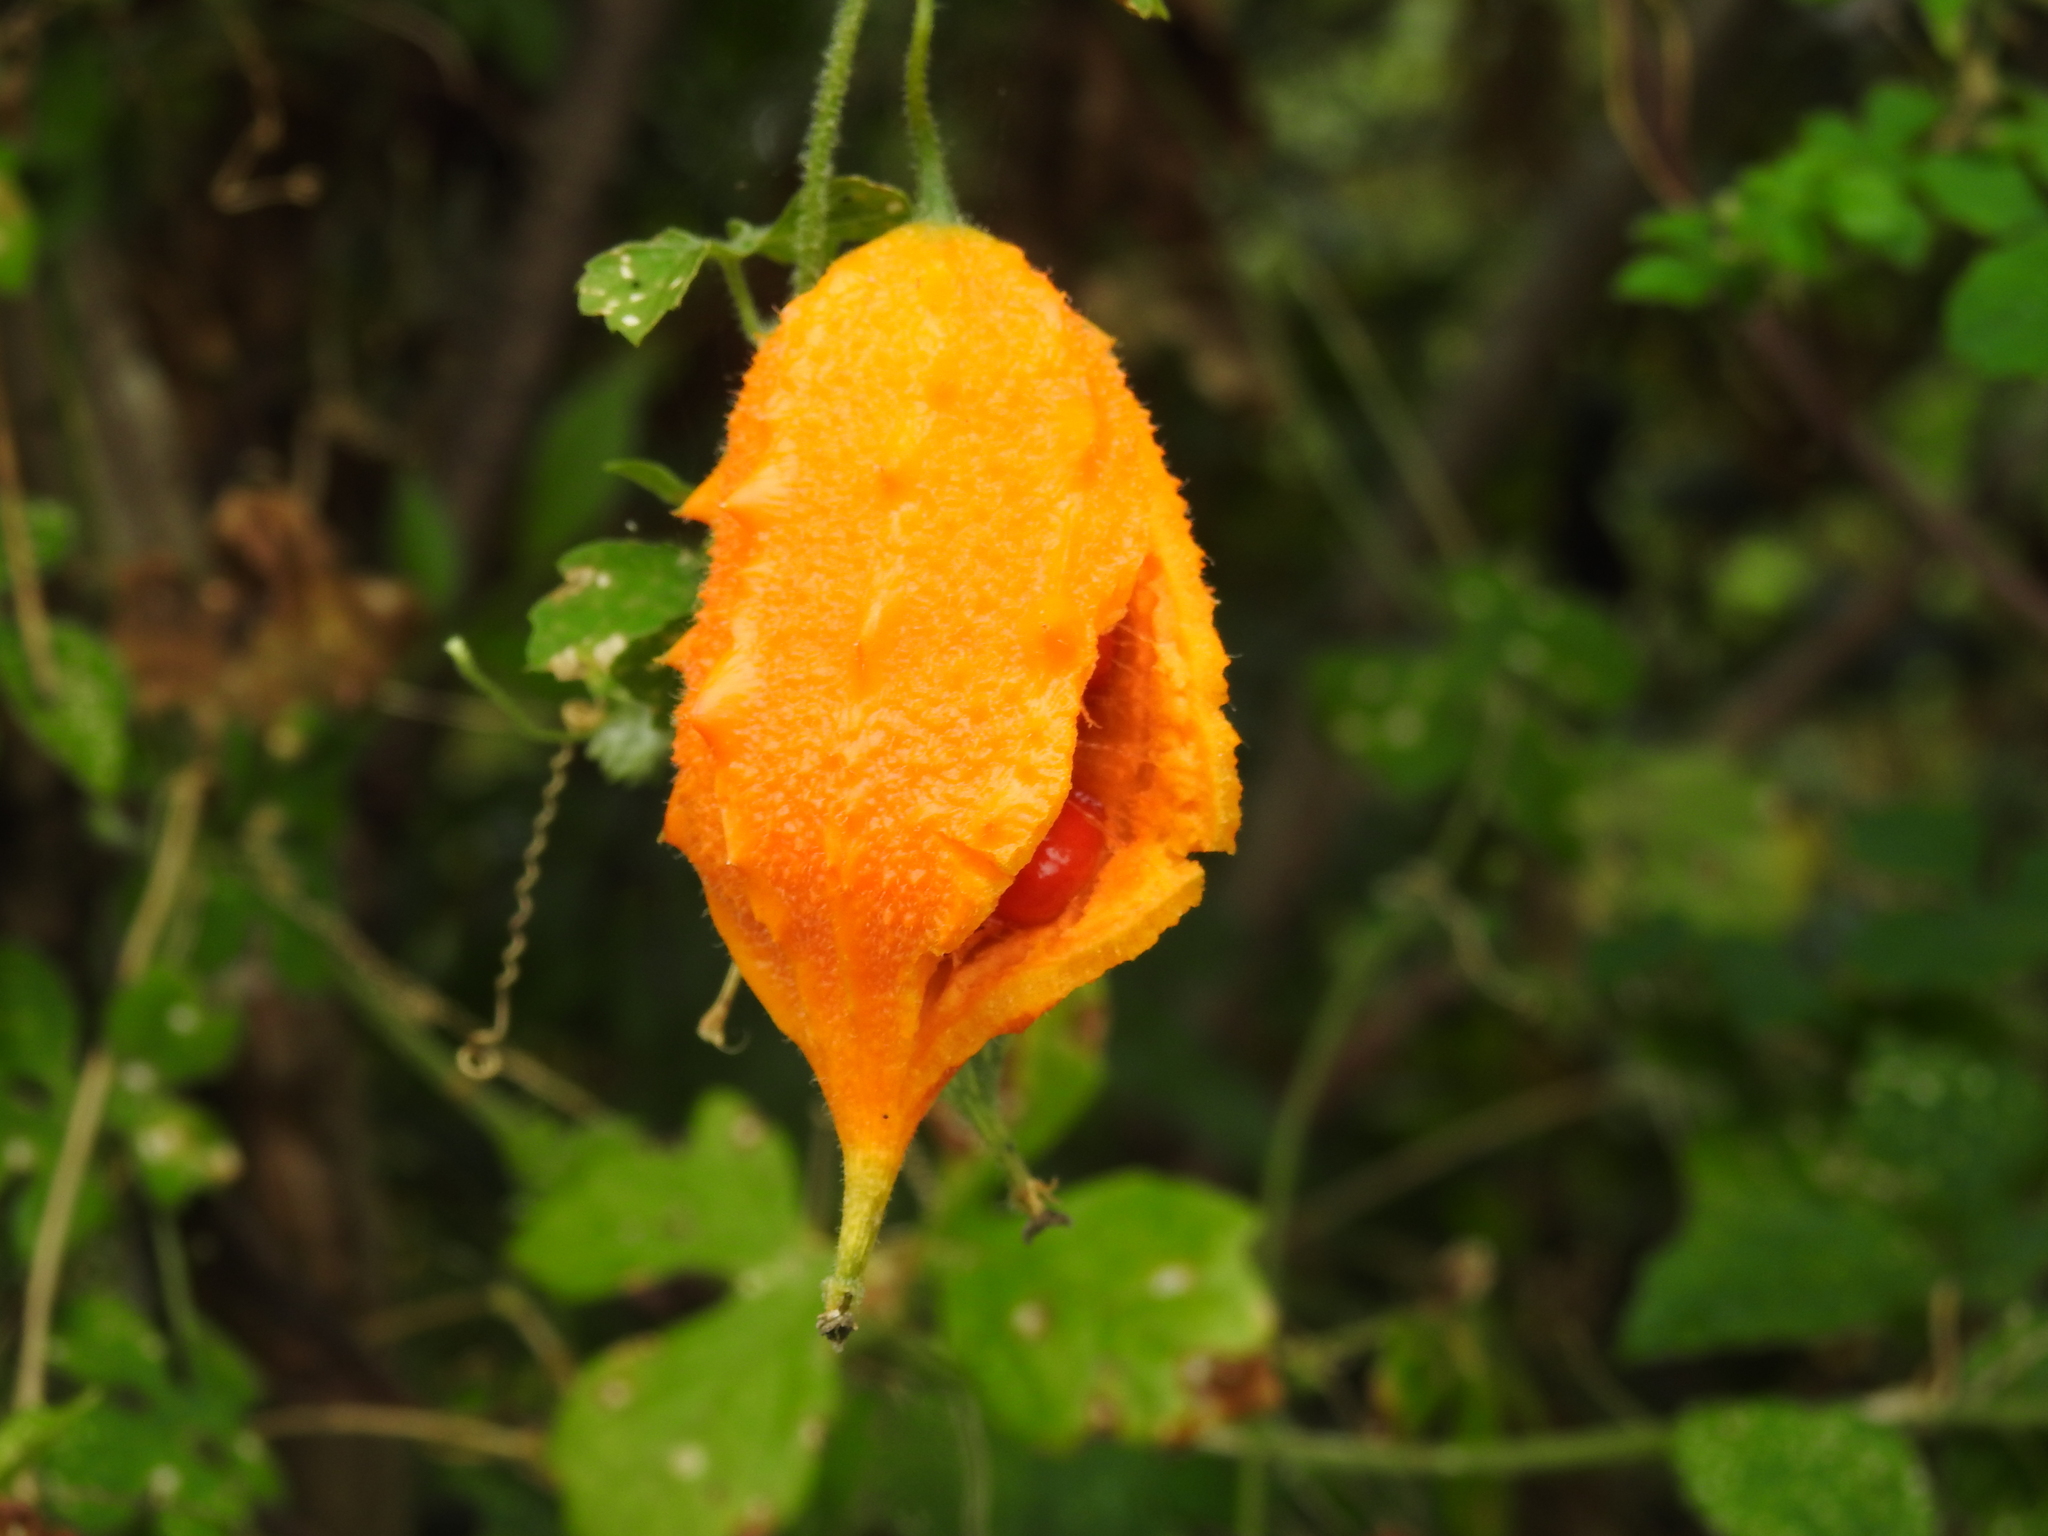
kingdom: Plantae
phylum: Tracheophyta
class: Magnoliopsida
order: Cucurbitales
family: Cucurbitaceae
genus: Momordica
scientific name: Momordica charantia
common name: Balsampear
